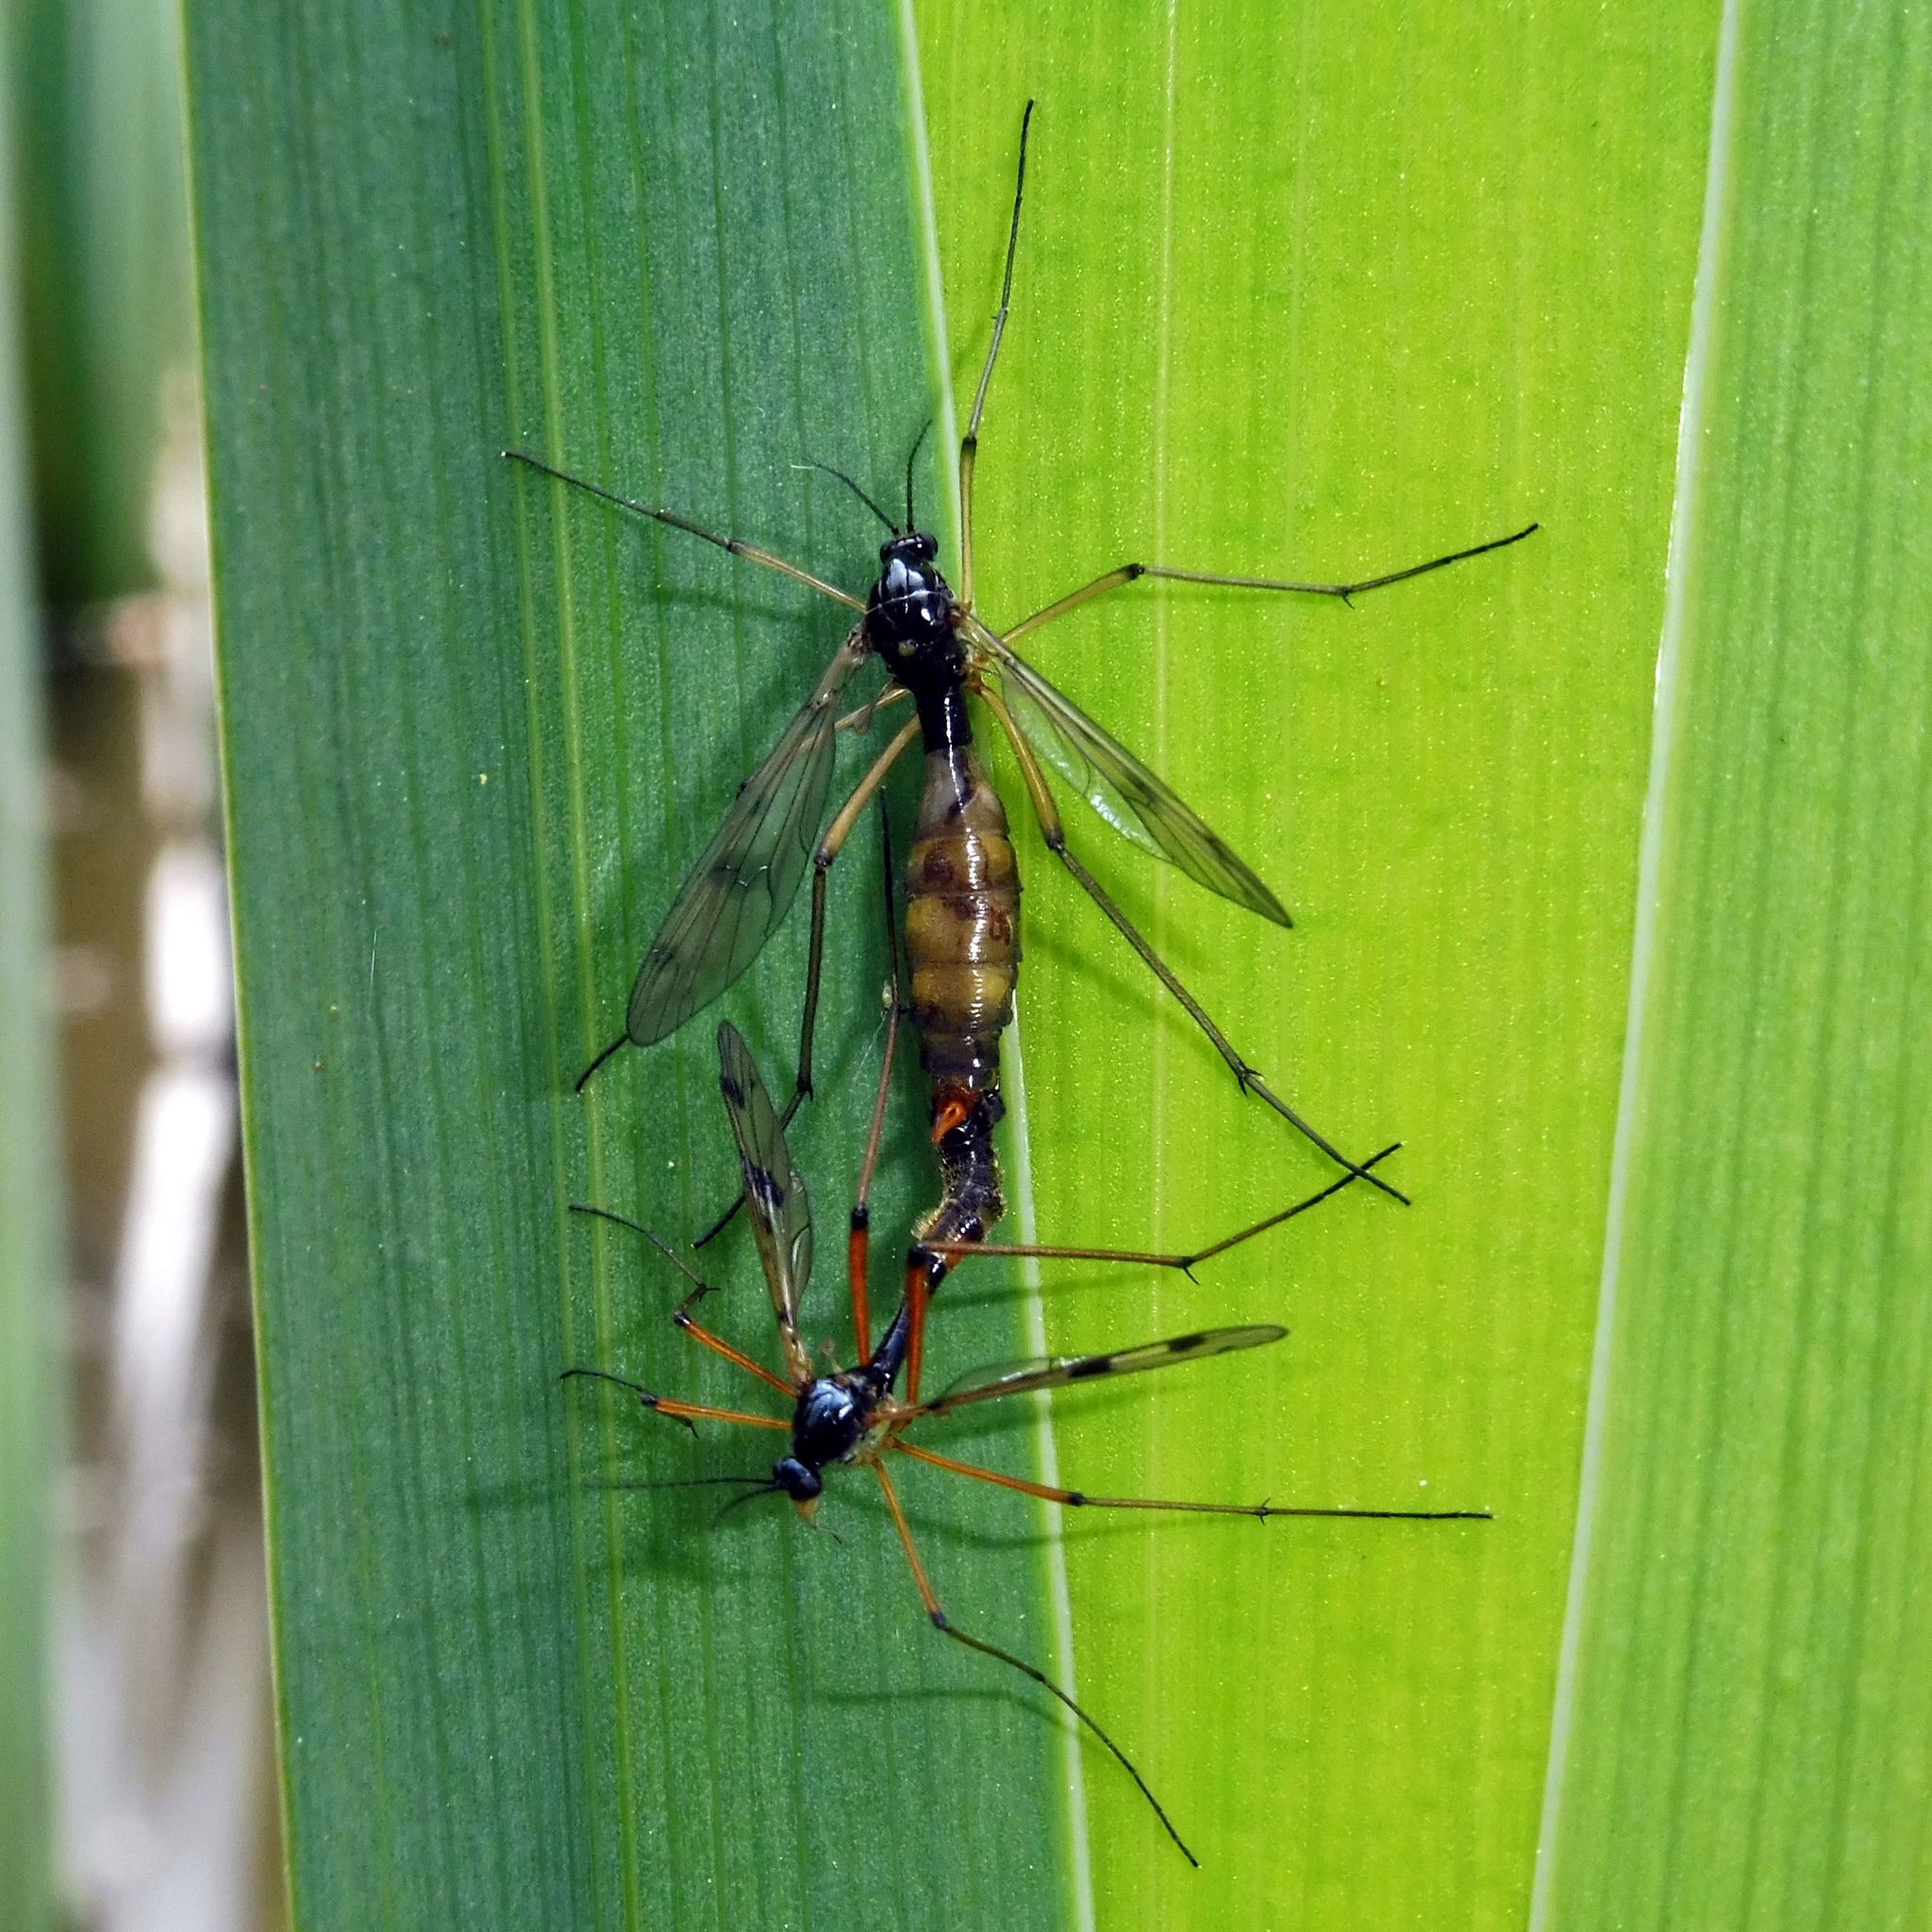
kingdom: Animalia
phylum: Arthropoda
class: Insecta
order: Diptera
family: Ptychopteridae
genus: Ptychoptera
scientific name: Ptychoptera contaminata
